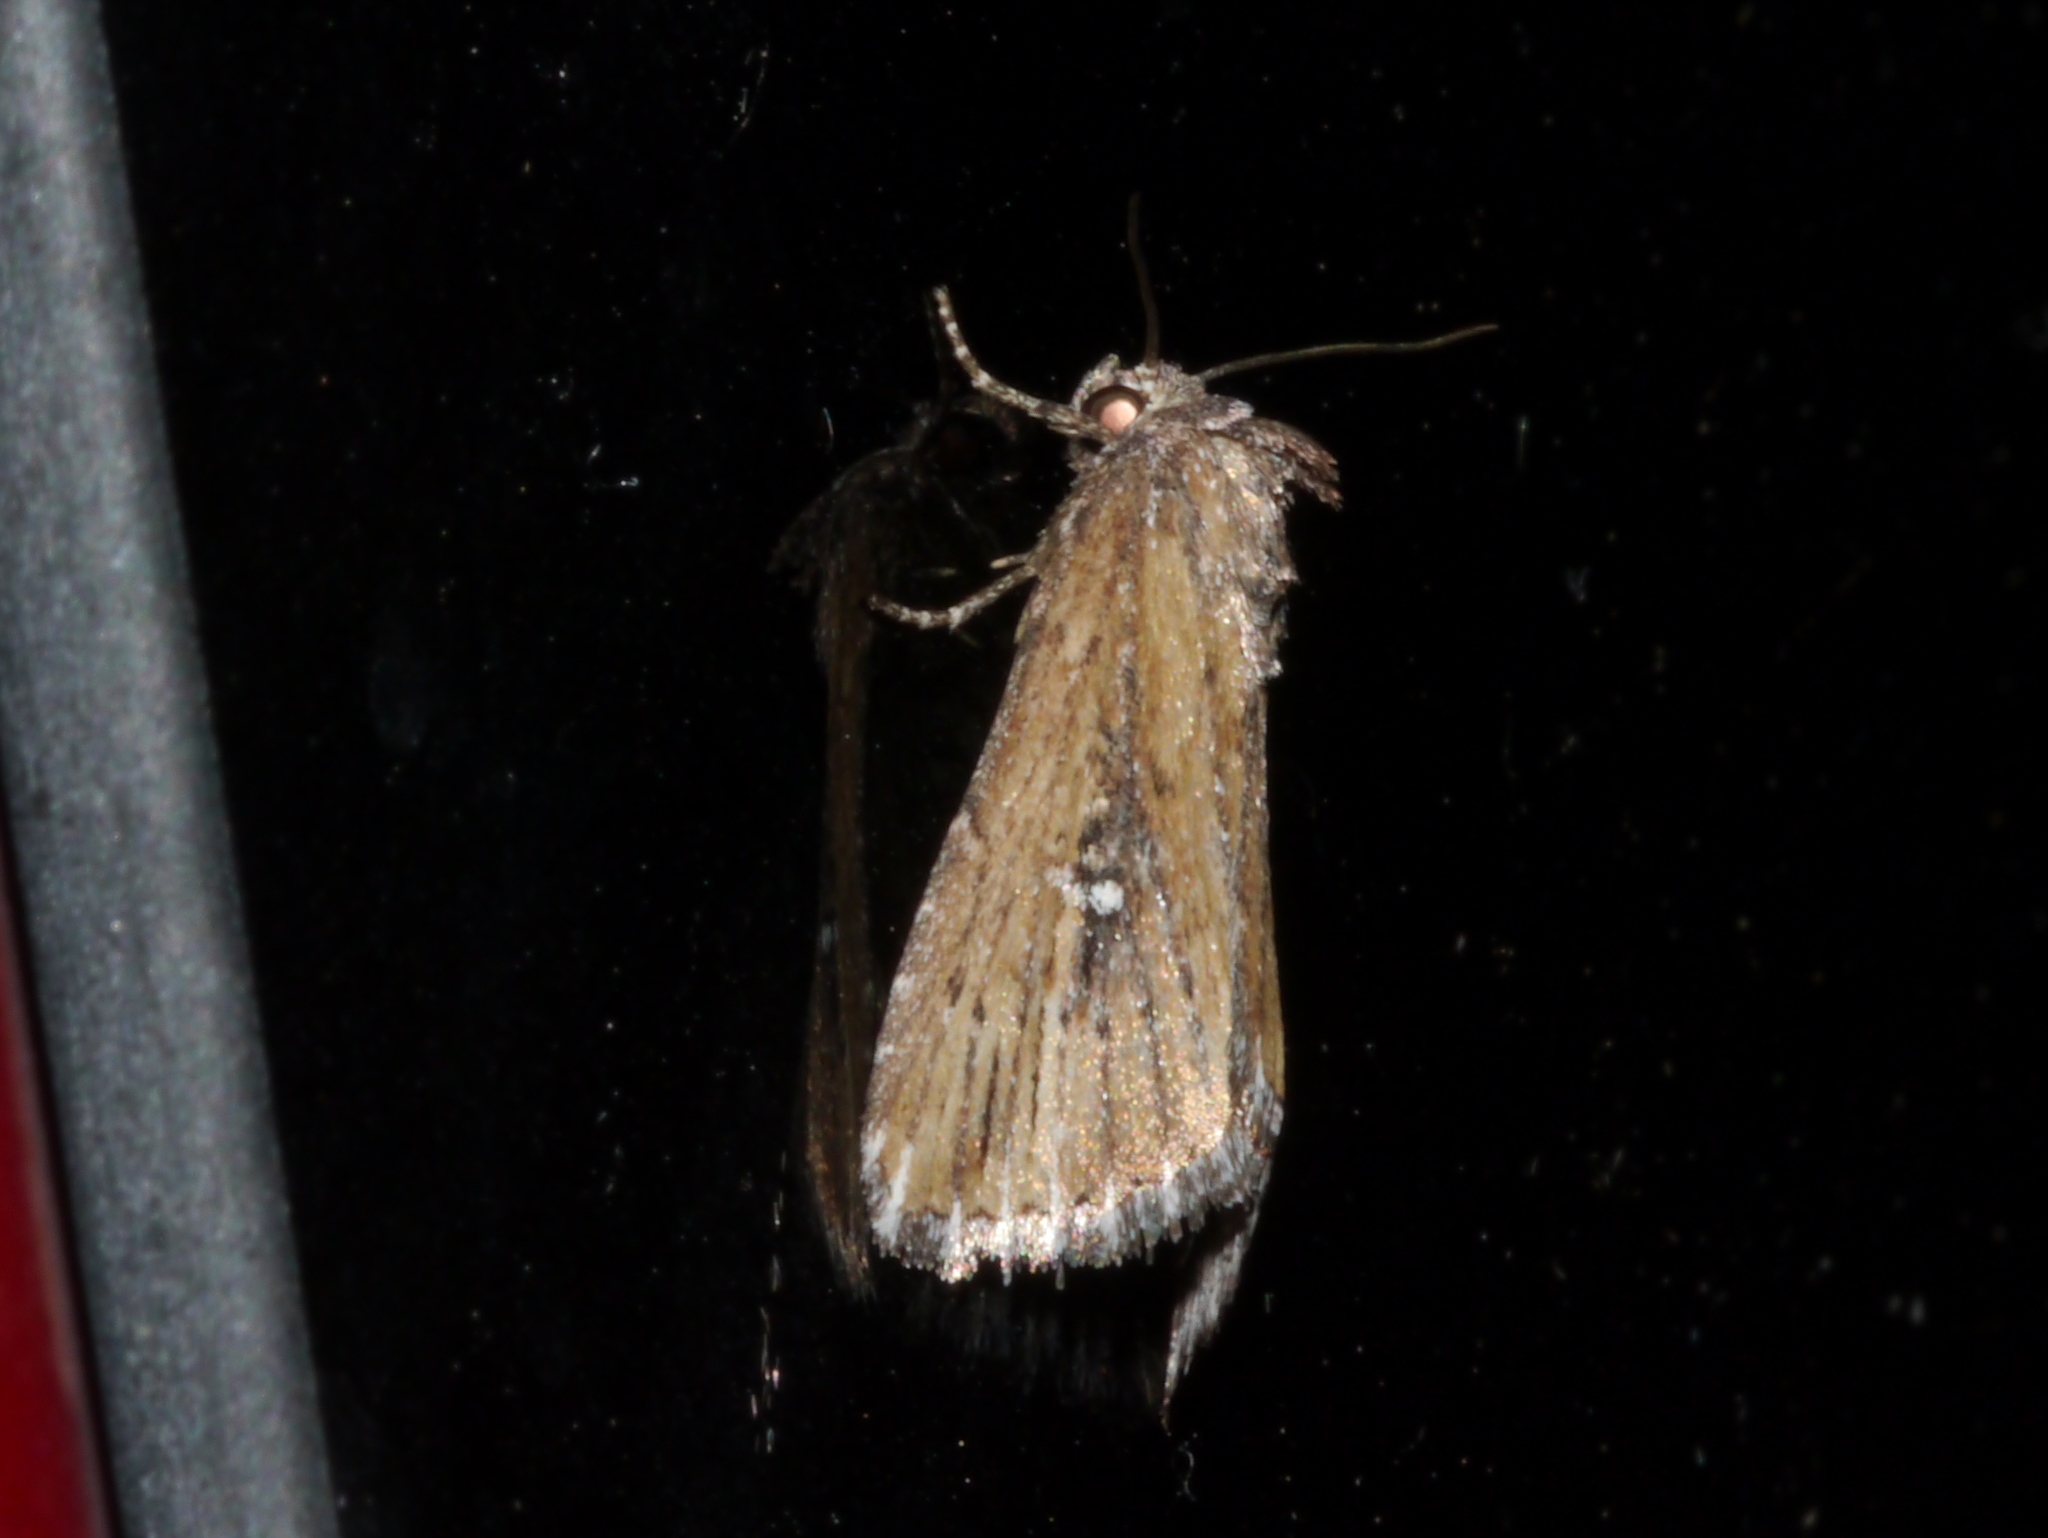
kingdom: Animalia
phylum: Arthropoda
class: Insecta
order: Lepidoptera
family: Noctuidae
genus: Condica
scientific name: Condica temecula
